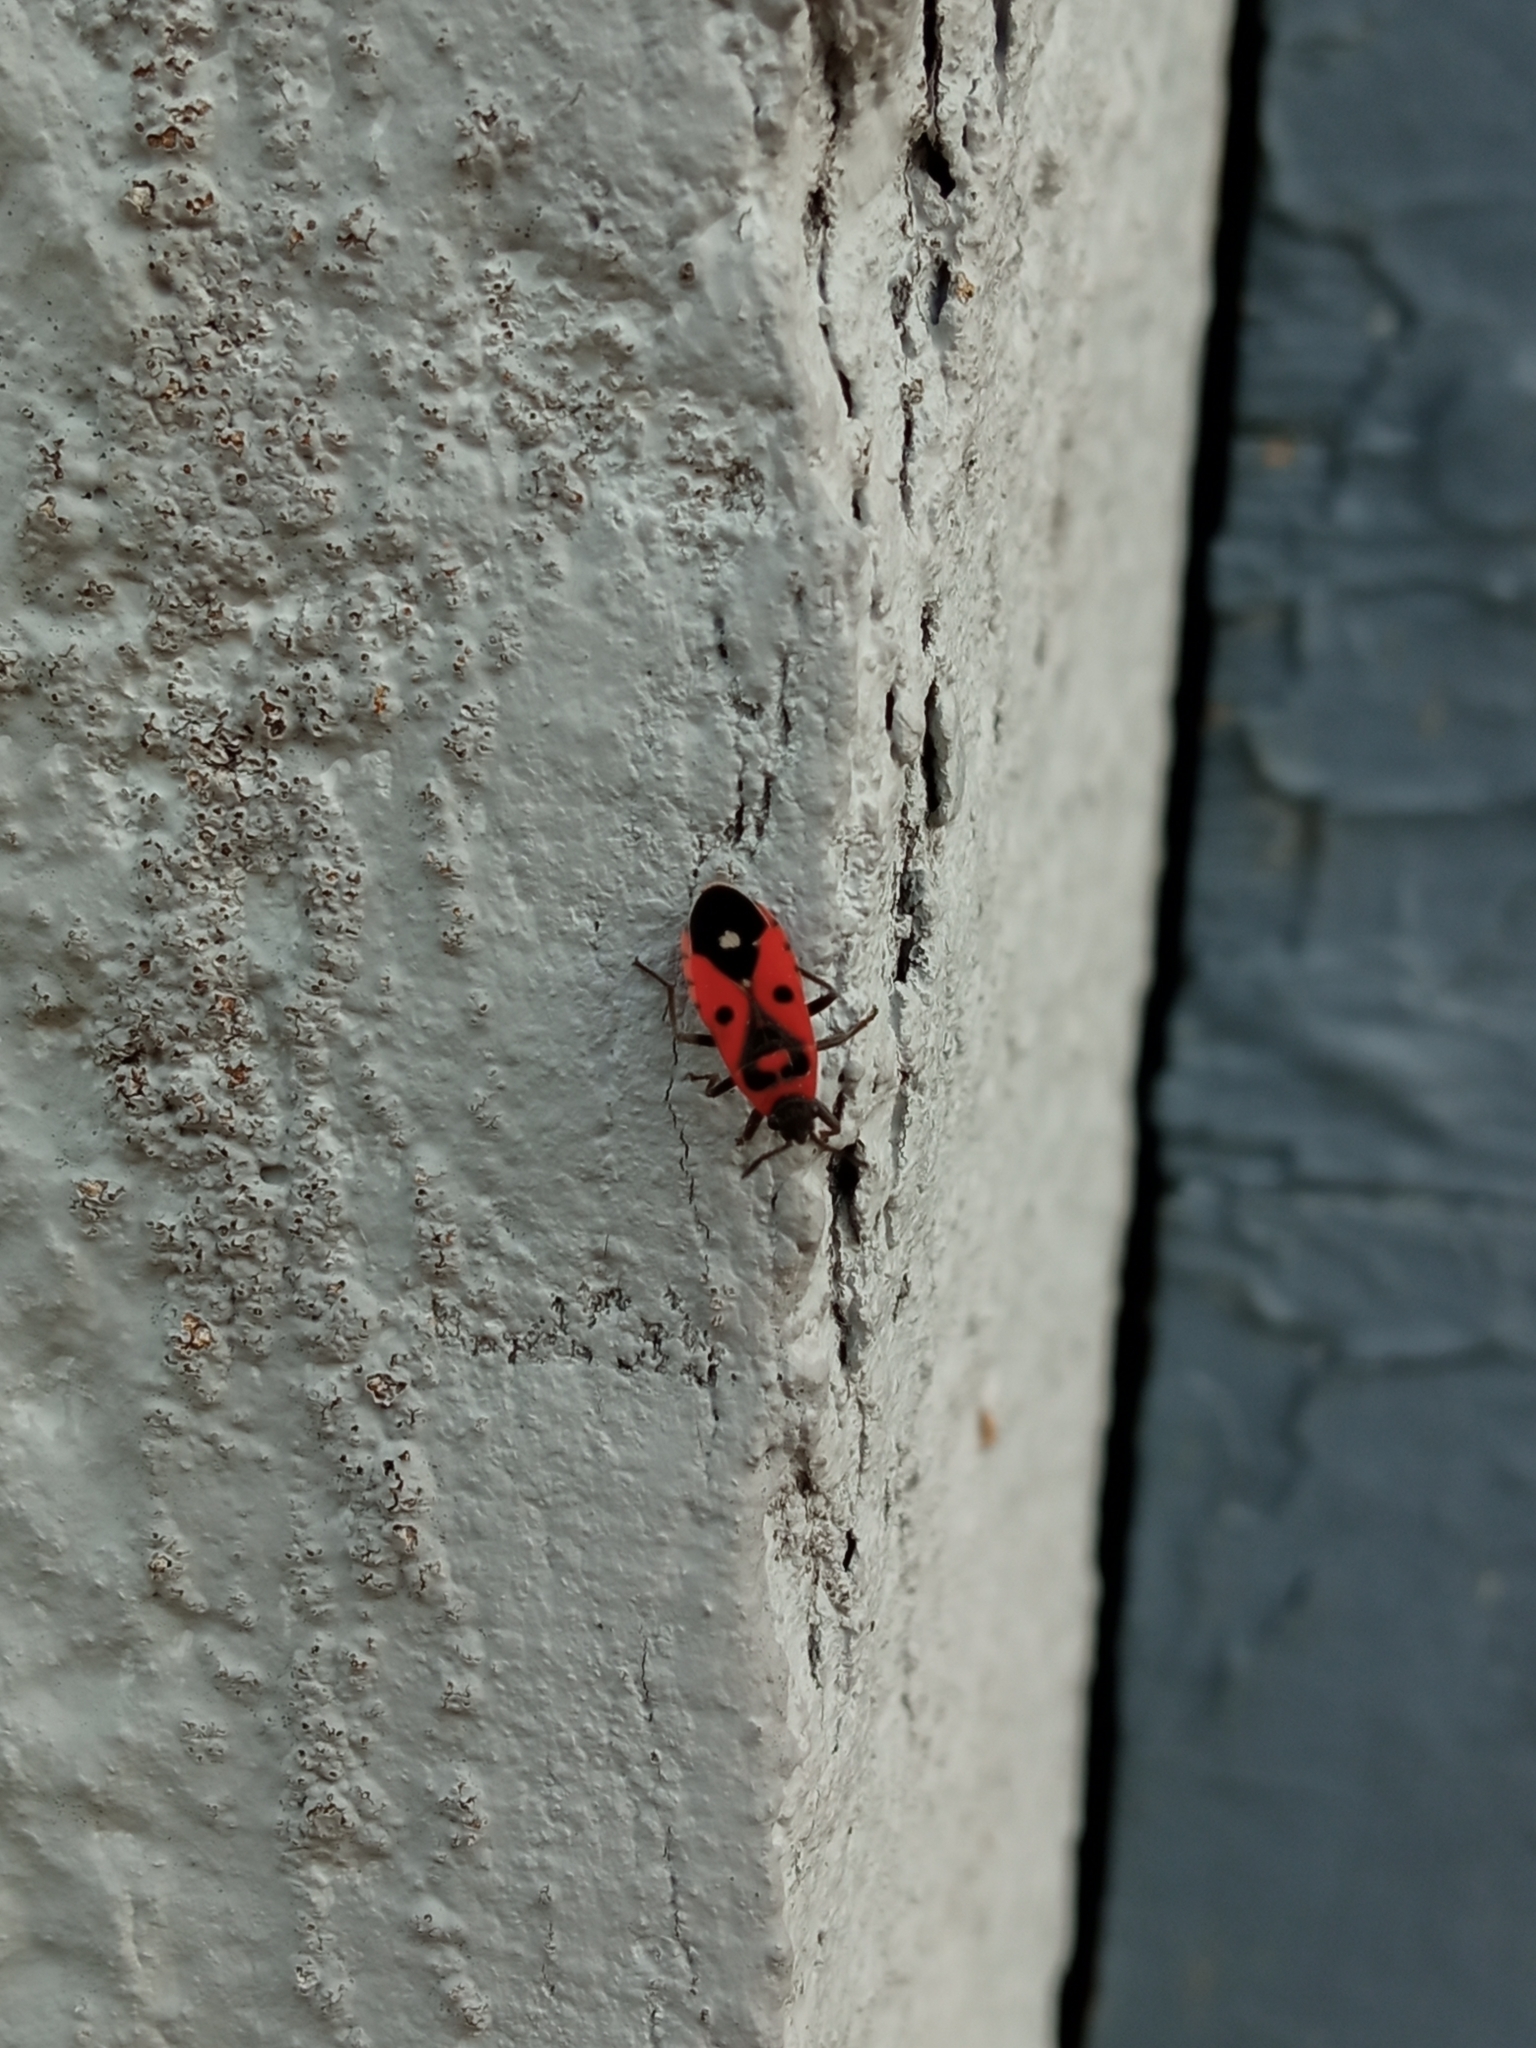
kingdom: Animalia
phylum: Arthropoda
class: Insecta
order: Hemiptera
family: Lygaeidae
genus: Melanocoryphus
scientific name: Melanocoryphus albomaculatus
